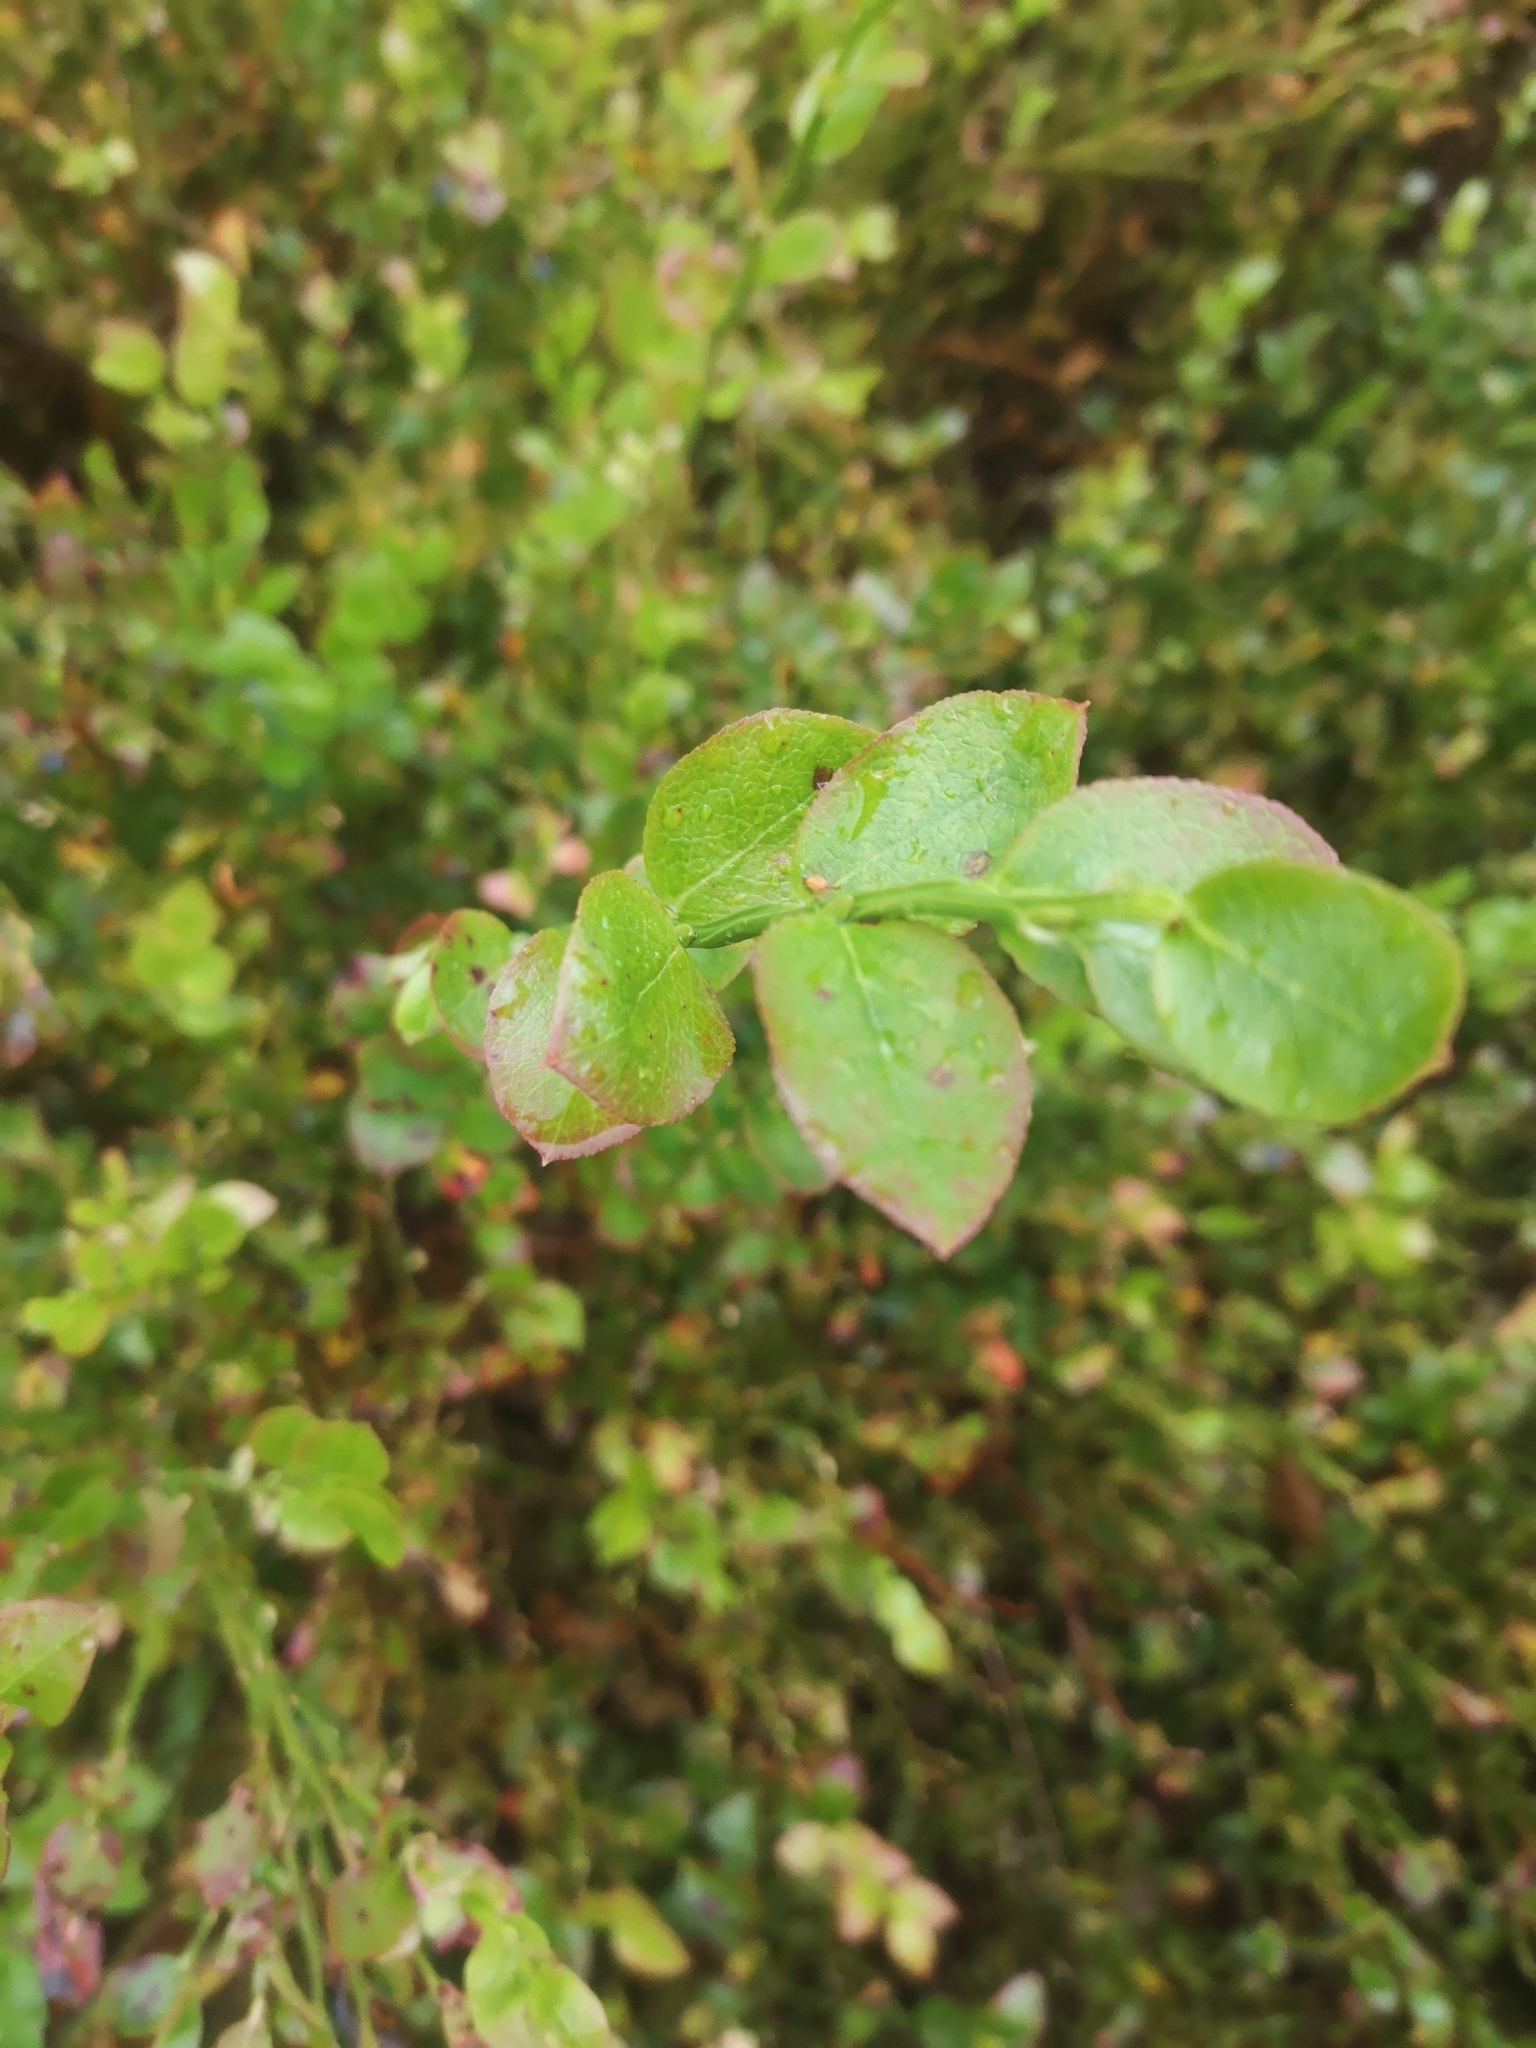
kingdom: Plantae
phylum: Tracheophyta
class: Magnoliopsida
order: Ericales
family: Ericaceae
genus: Vaccinium
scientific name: Vaccinium myrtillus
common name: Bilberry
